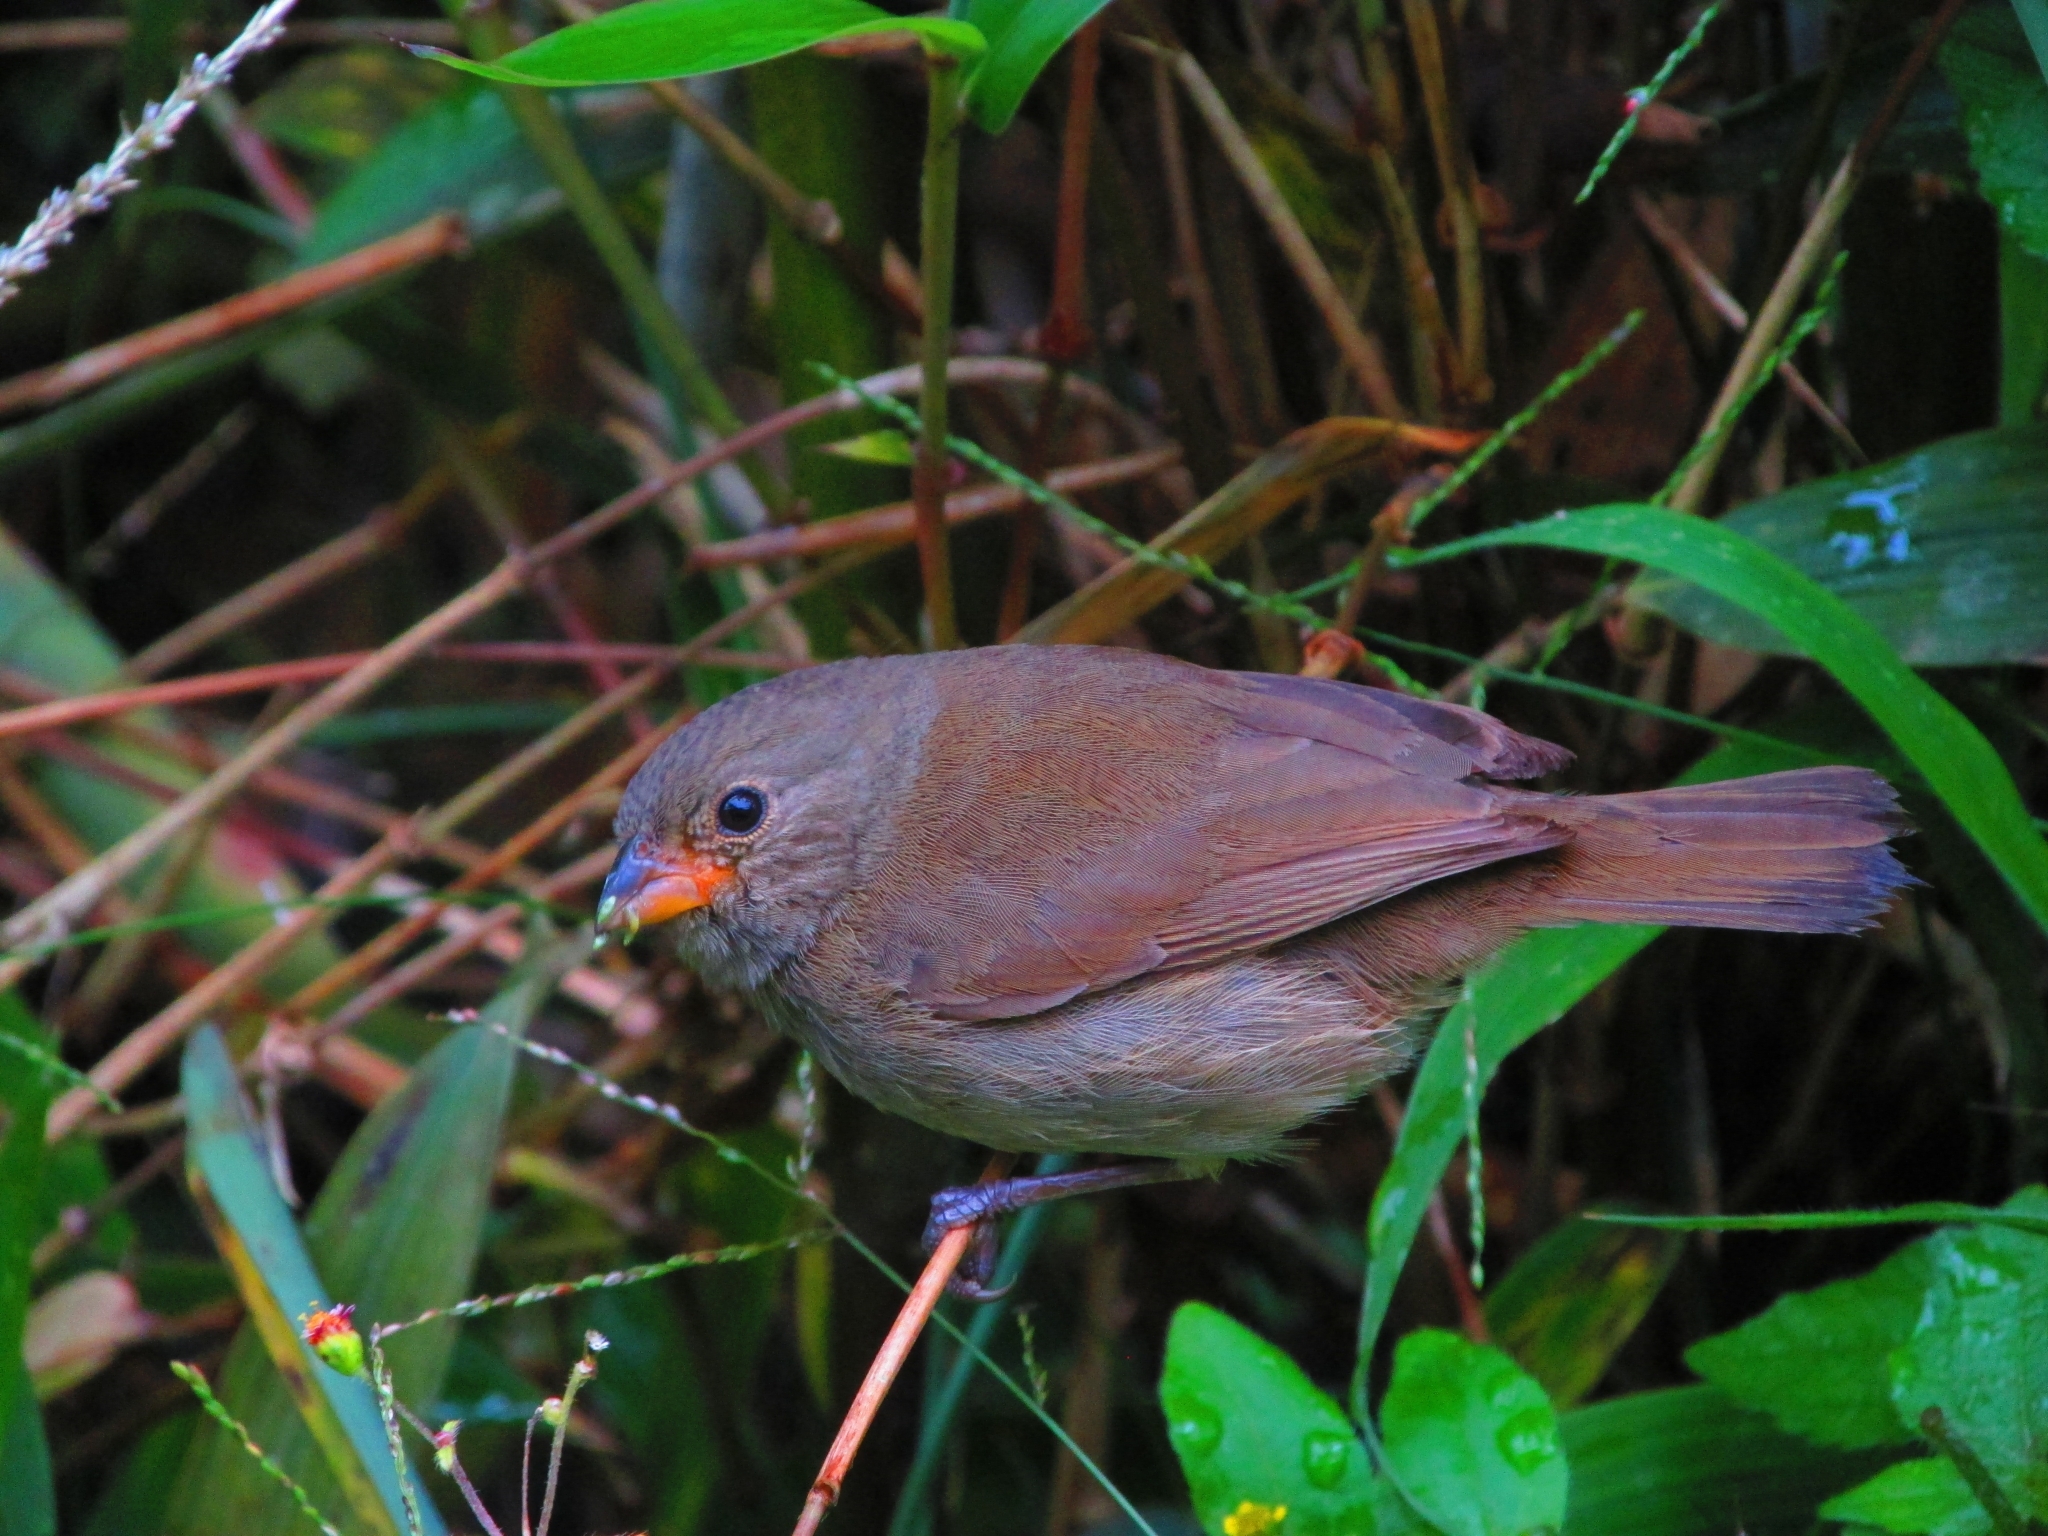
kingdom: Animalia
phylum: Chordata
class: Aves
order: Passeriformes
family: Thraupidae
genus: Asemospiza
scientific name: Asemospiza obscura
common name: Dull-colored grassquit
